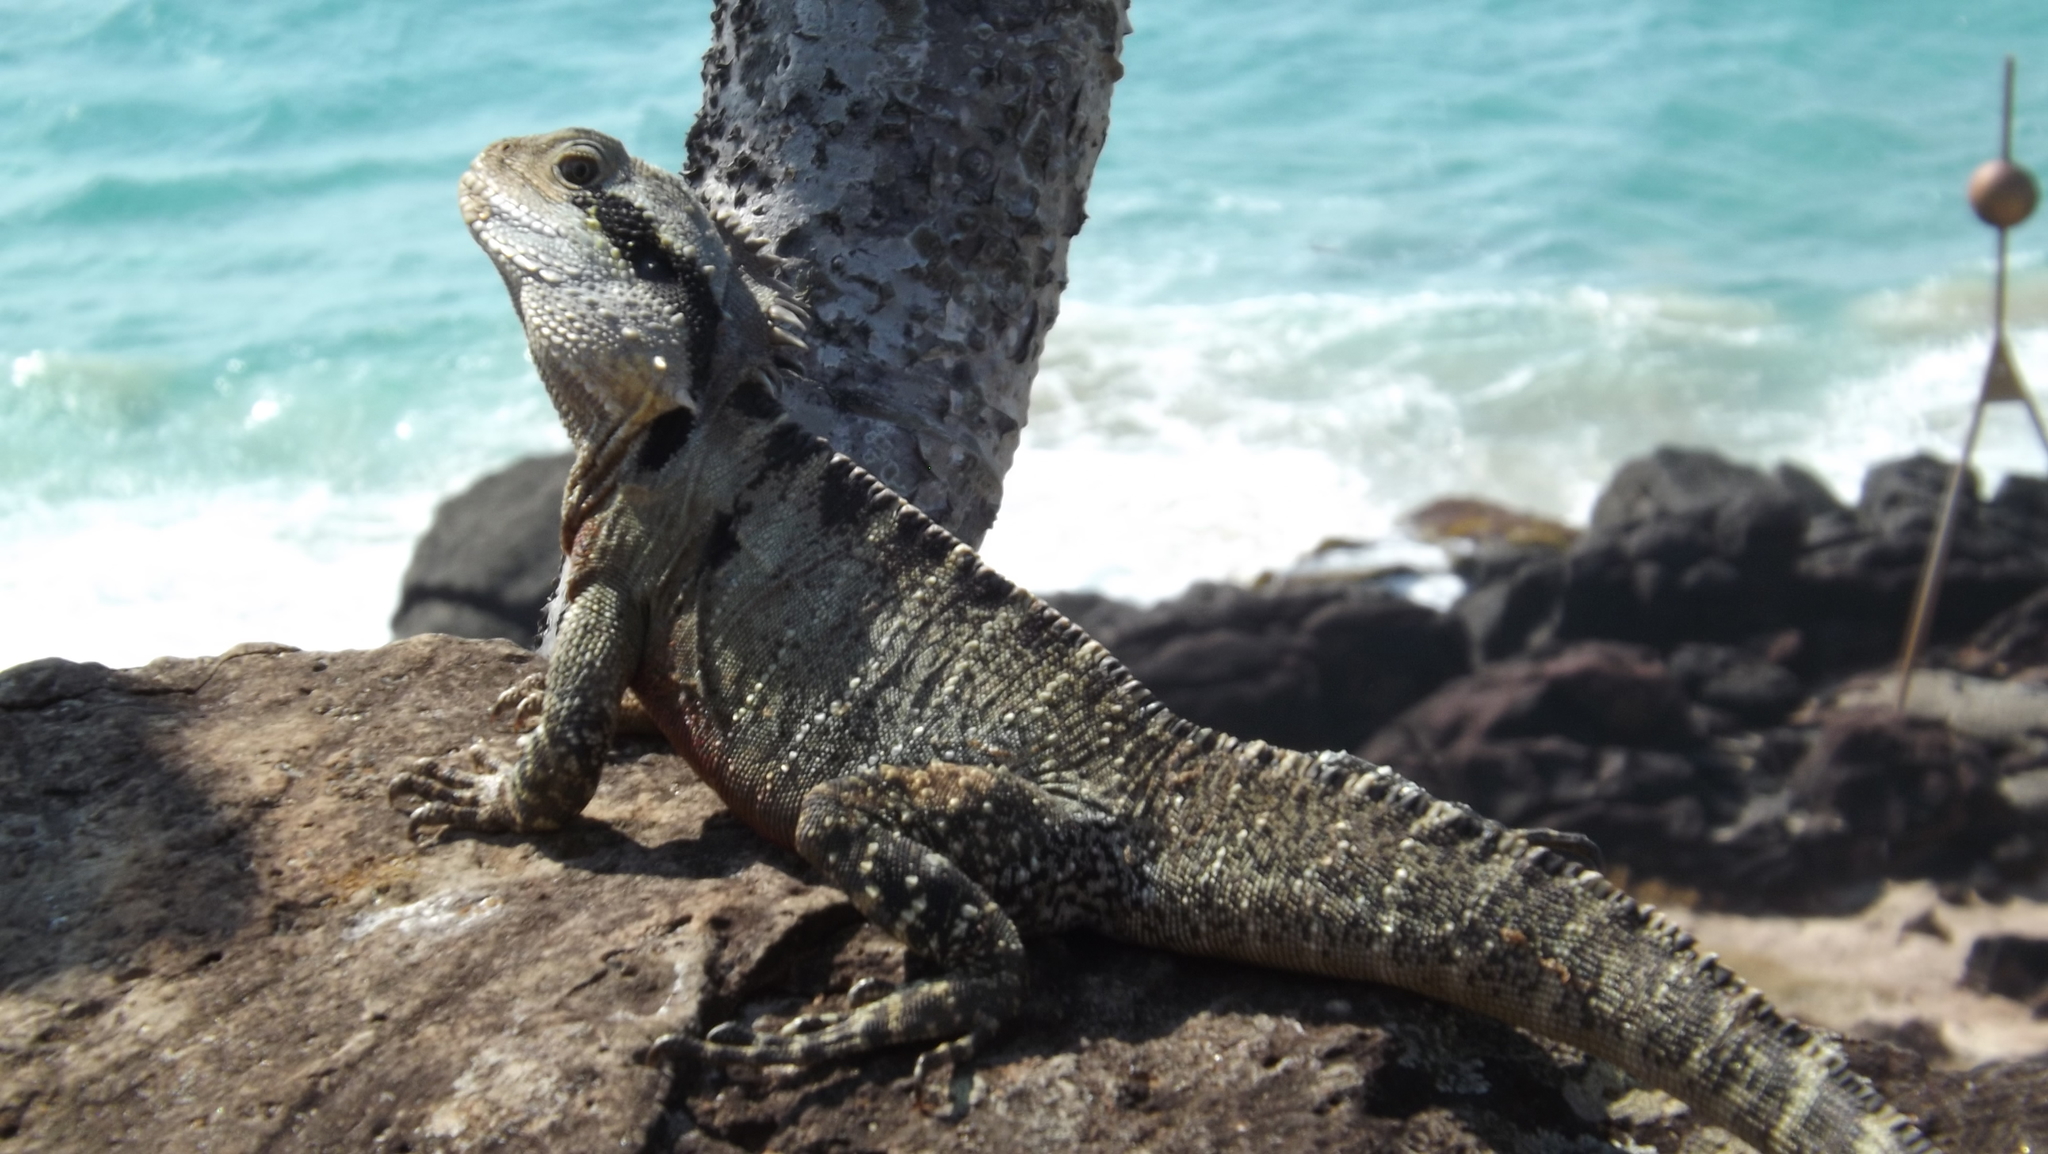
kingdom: Animalia
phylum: Chordata
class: Squamata
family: Agamidae
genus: Intellagama
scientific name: Intellagama lesueurii
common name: Eastern water dragon
